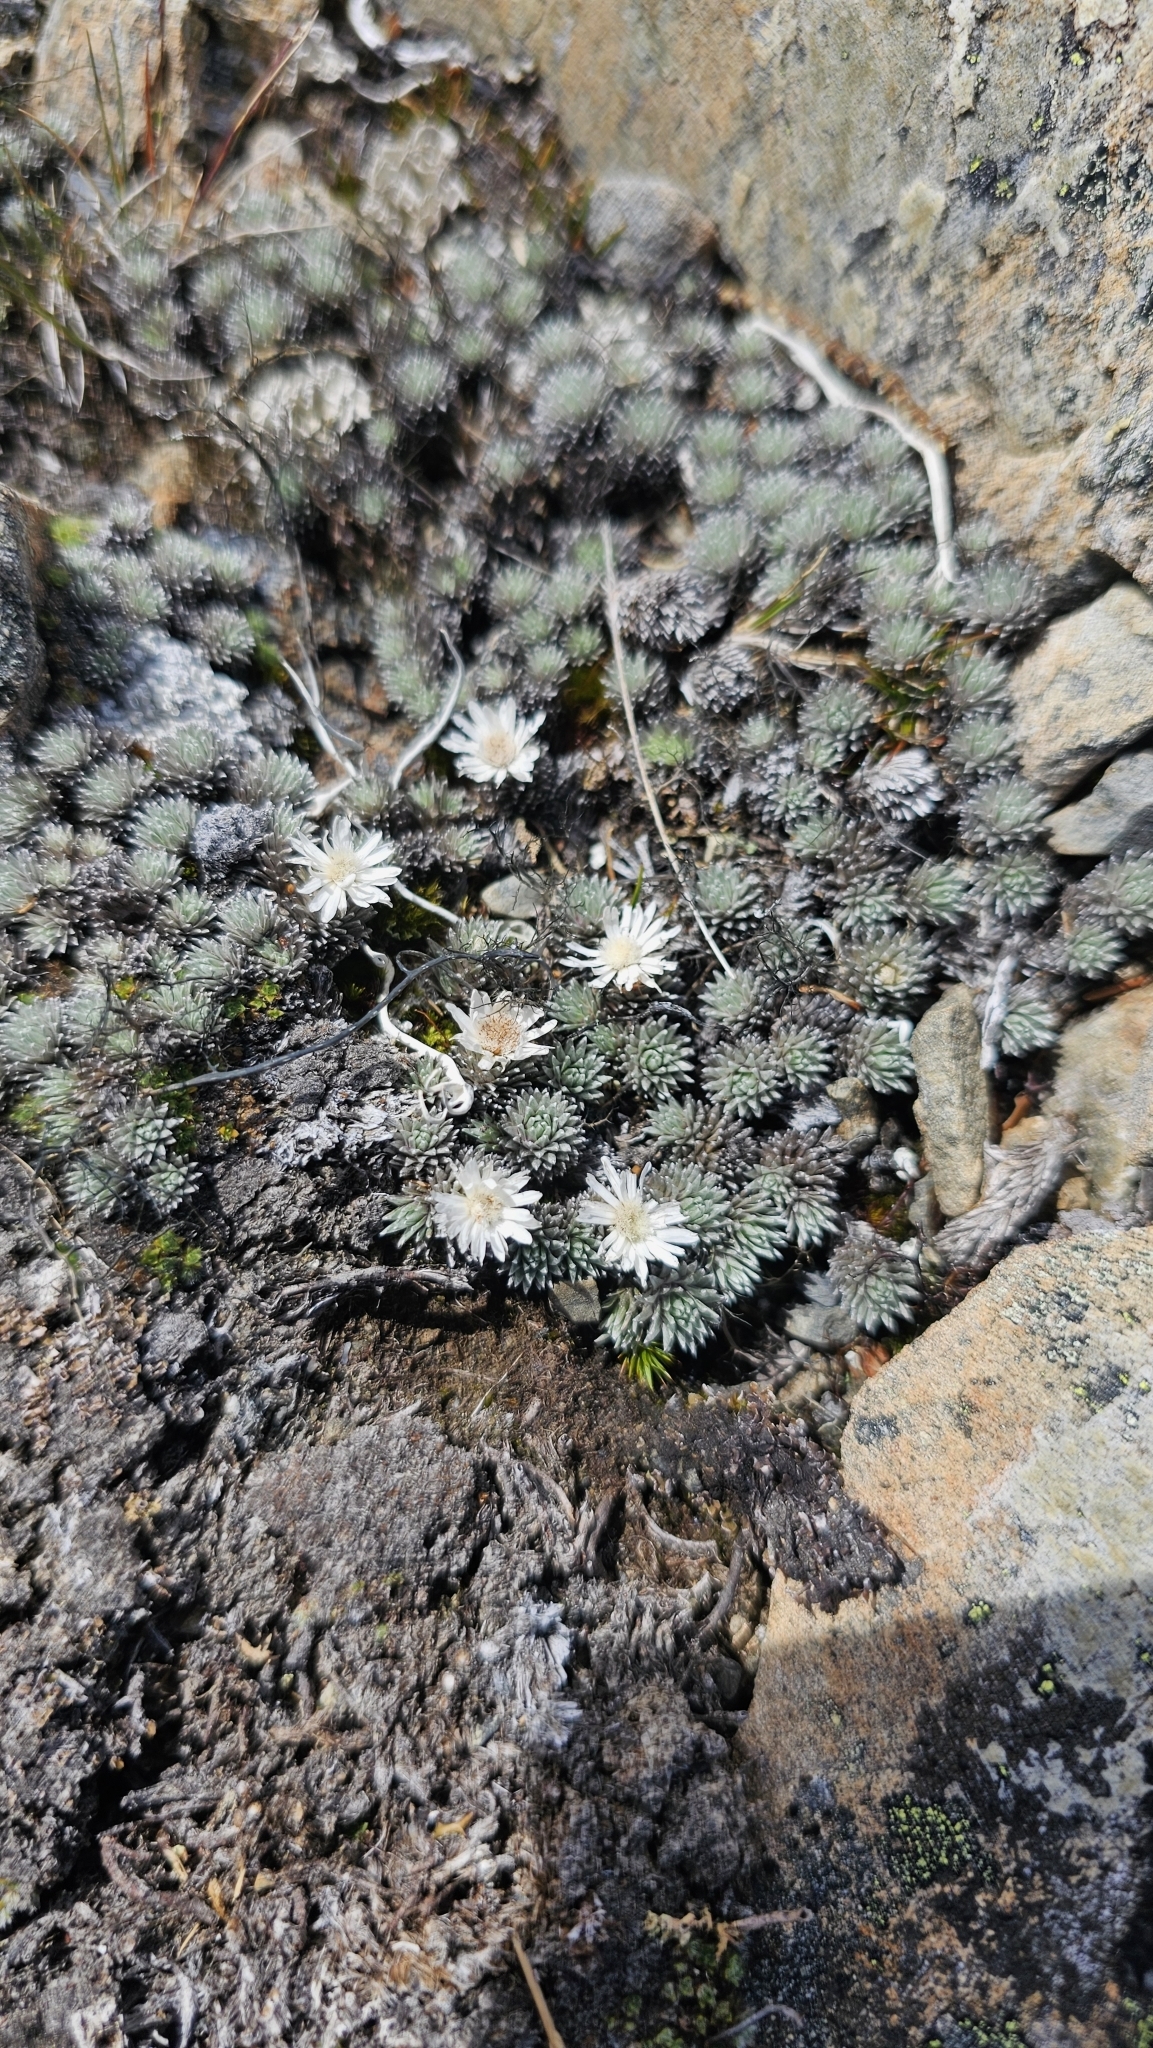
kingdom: Plantae
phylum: Tracheophyta
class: Magnoliopsida
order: Asterales
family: Asteraceae
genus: Raoulia
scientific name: Raoulia grandiflora
